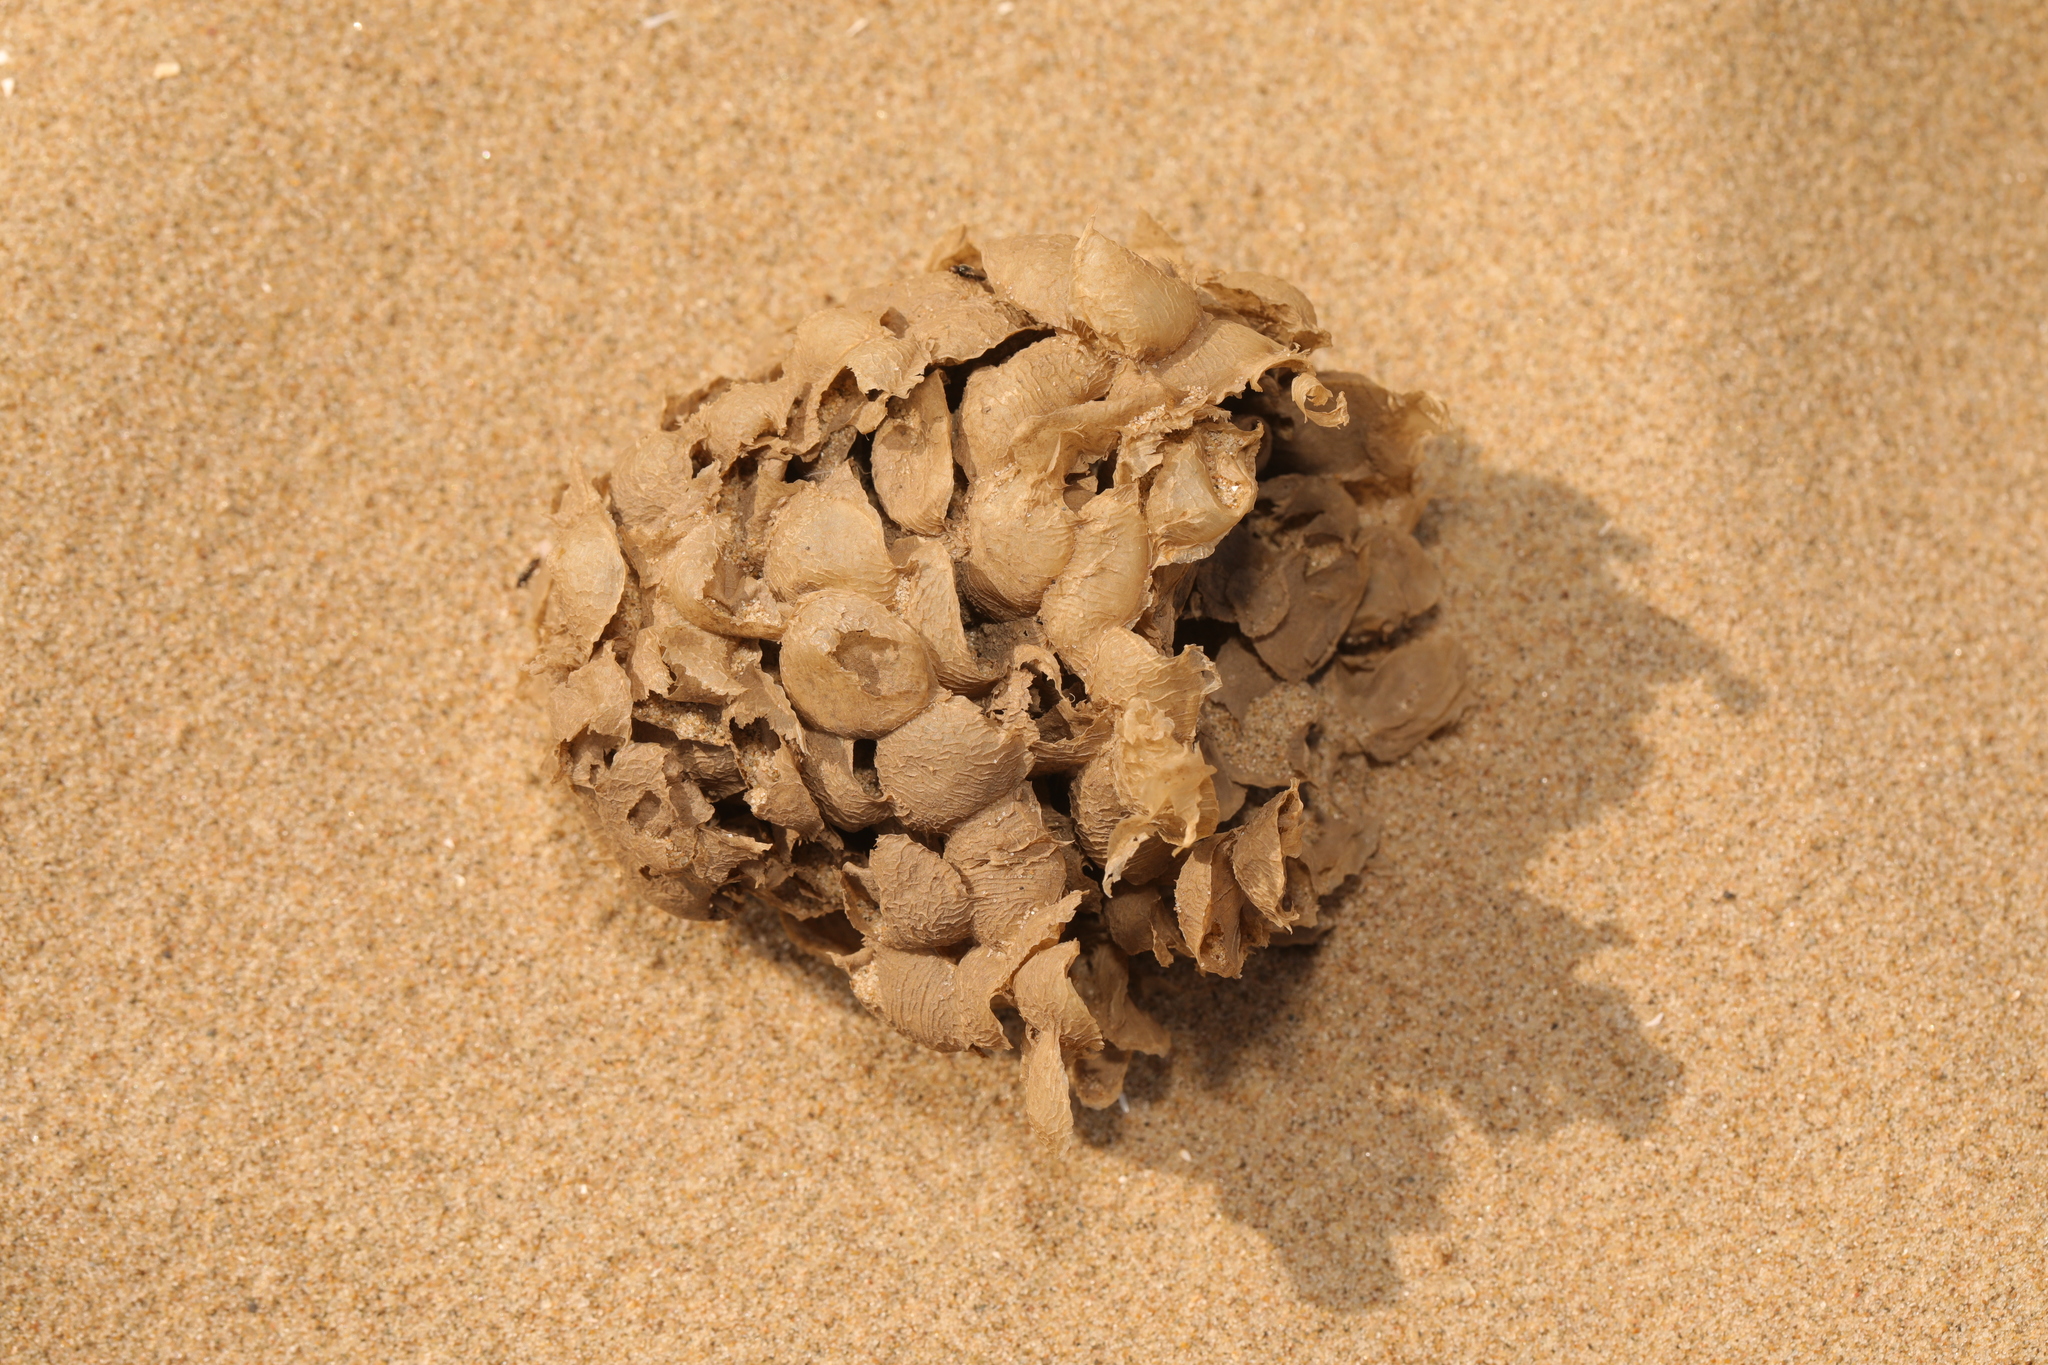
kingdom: Animalia
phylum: Mollusca
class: Gastropoda
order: Neogastropoda
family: Buccinidae
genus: Buccinum
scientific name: Buccinum undatum
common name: Common whelk
